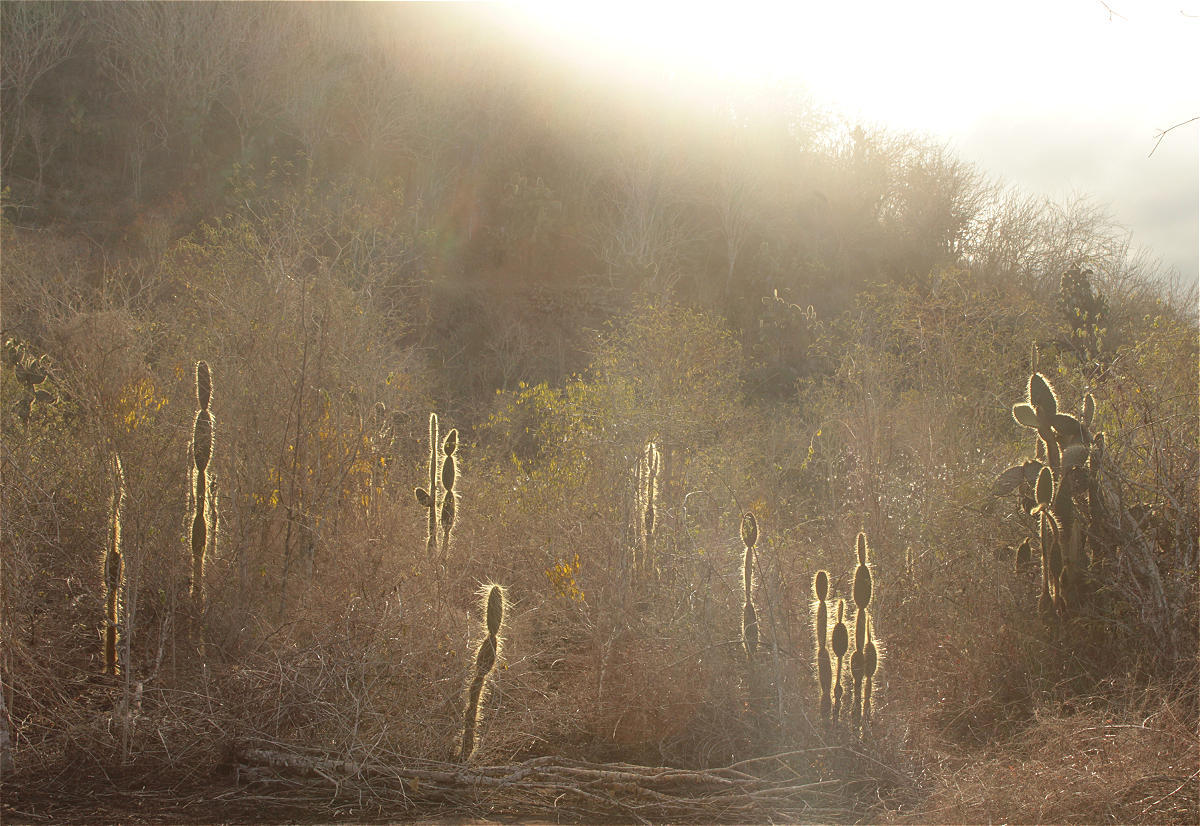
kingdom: Plantae
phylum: Tracheophyta
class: Magnoliopsida
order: Caryophyllales
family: Cactaceae
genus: Opuntia
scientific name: Opuntia galapageia
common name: Galápagos prickly pear
